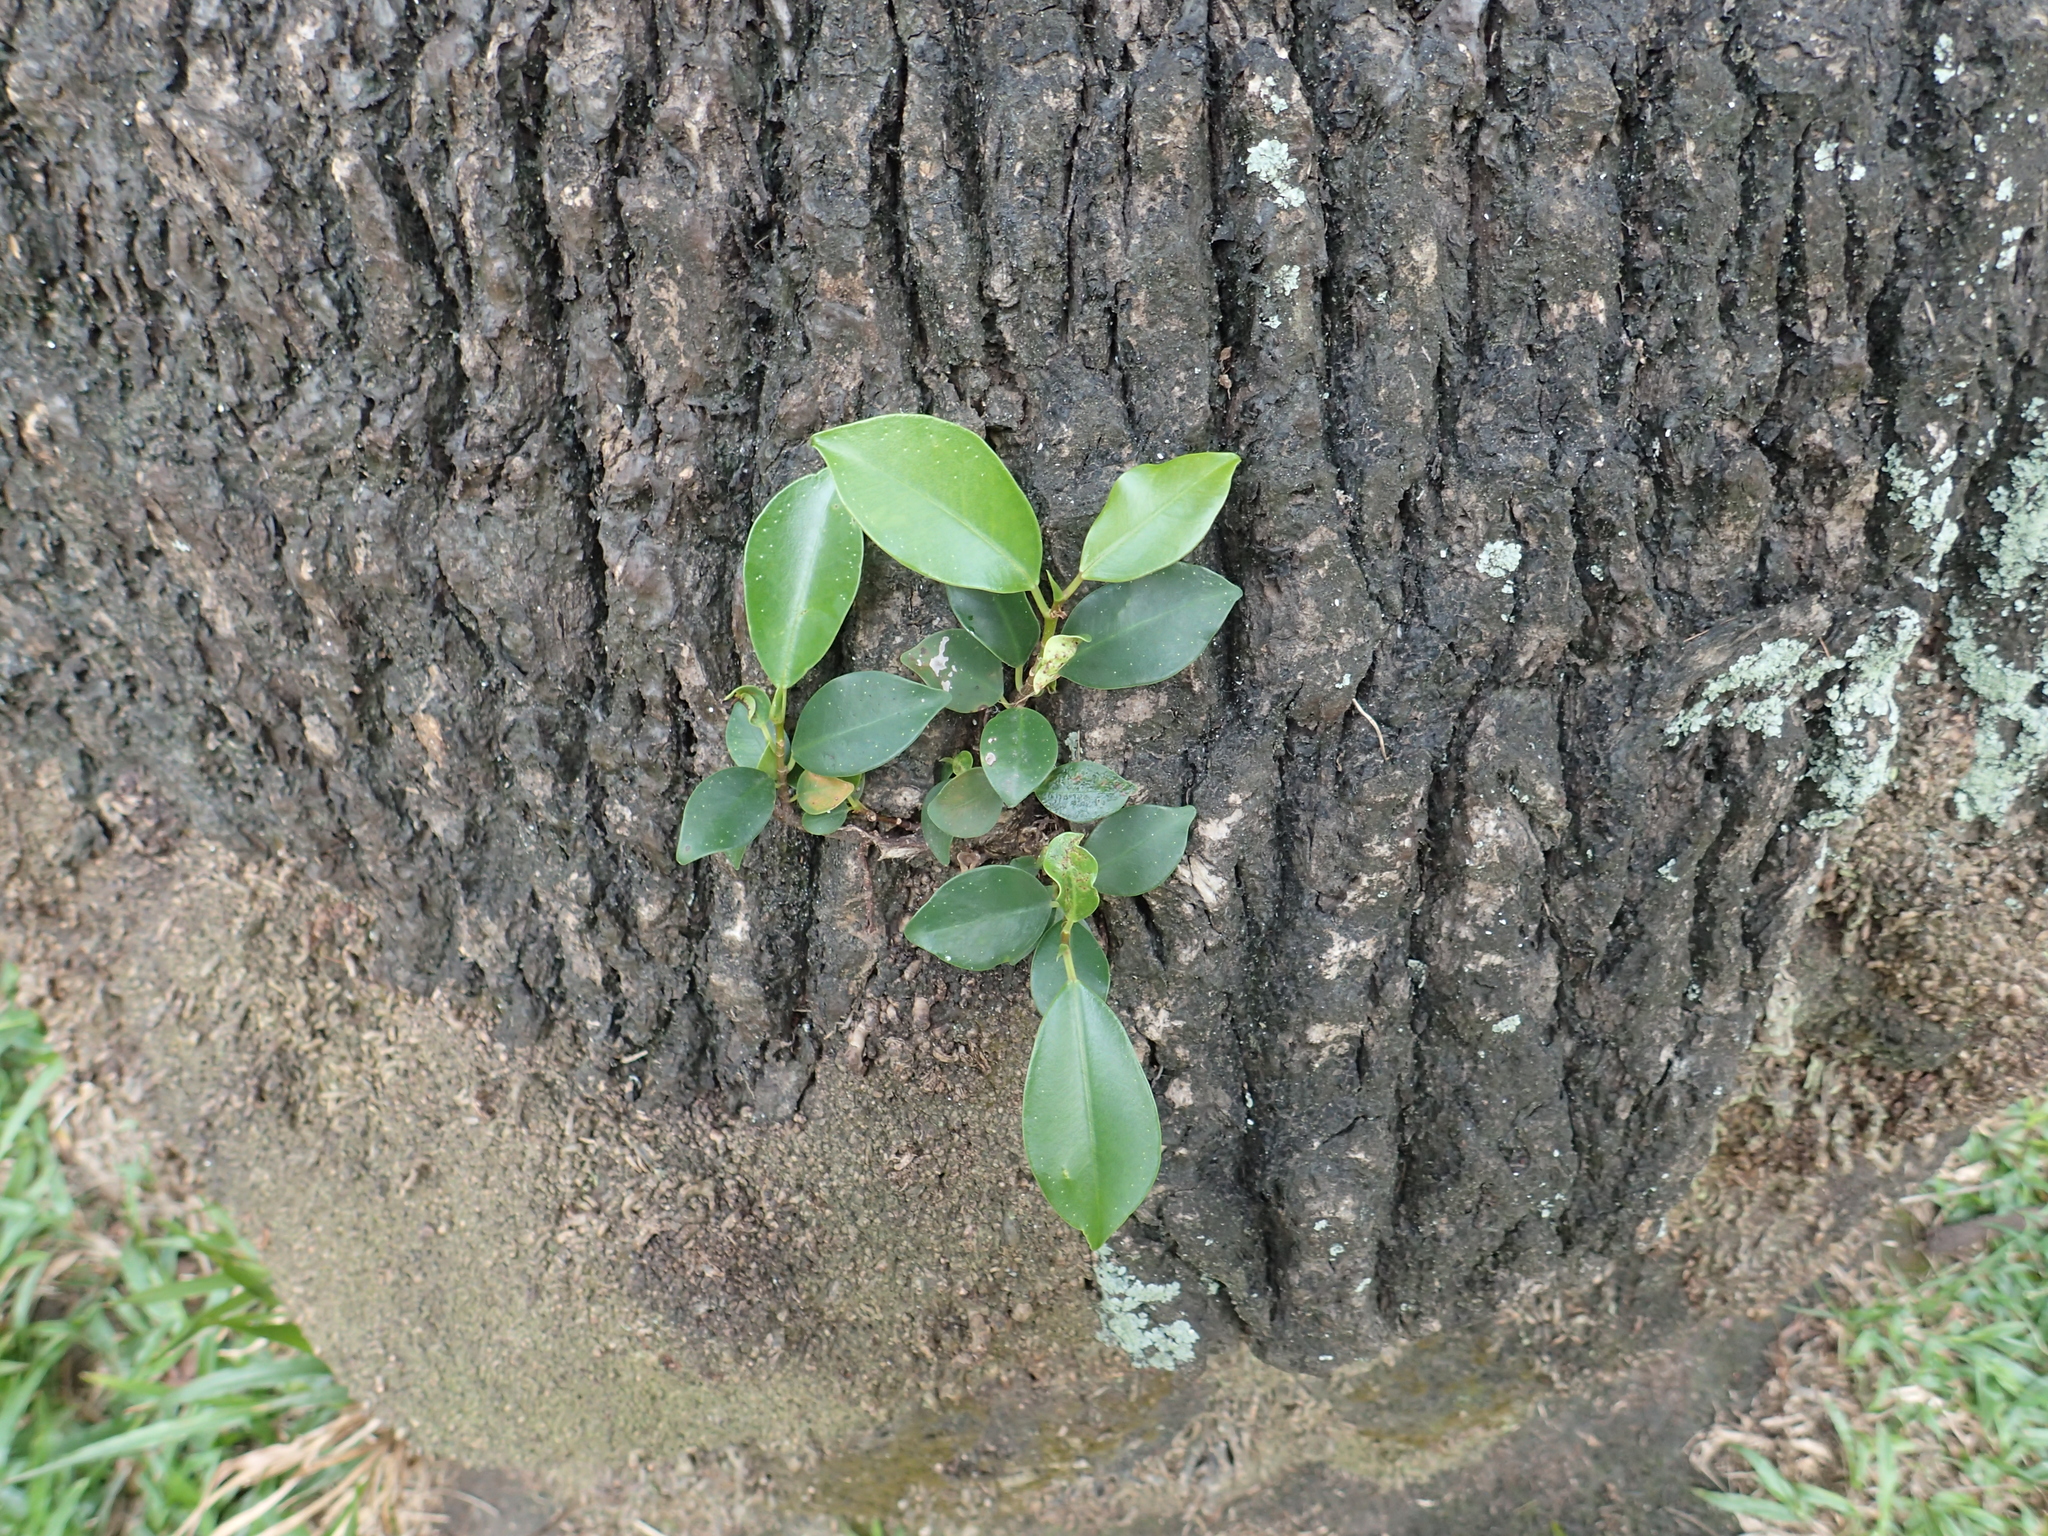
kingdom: Plantae
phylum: Tracheophyta
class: Magnoliopsida
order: Rosales
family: Moraceae
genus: Ficus
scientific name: Ficus microcarpa
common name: Chinese banyan
